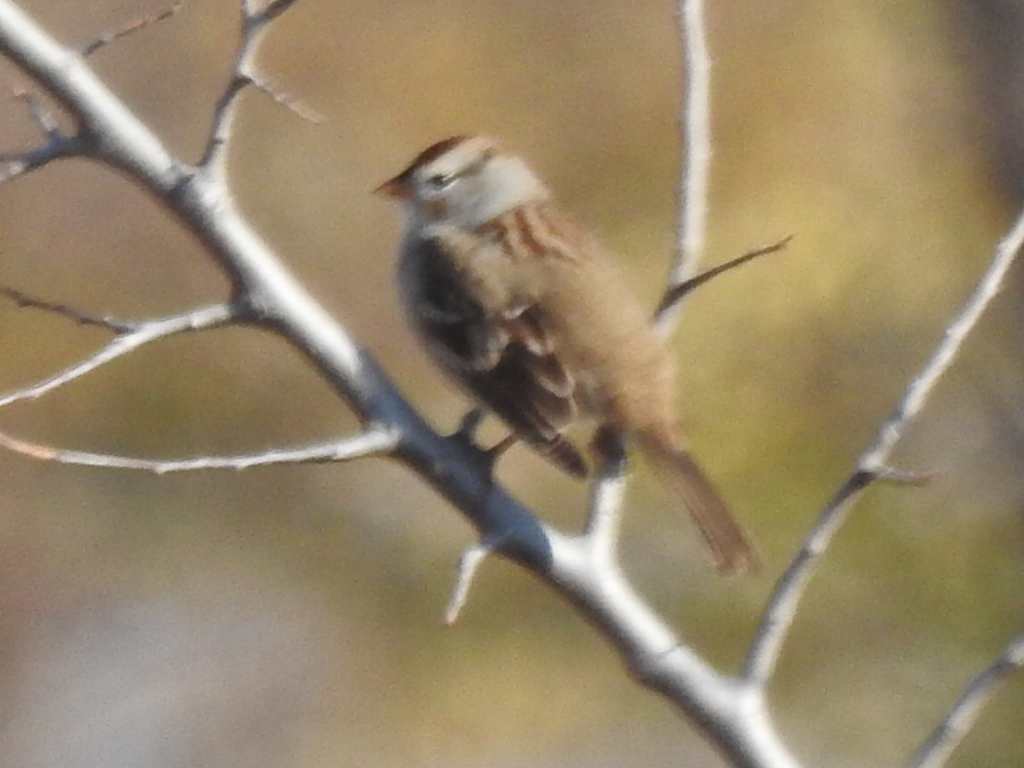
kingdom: Animalia
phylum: Chordata
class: Aves
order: Passeriformes
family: Passerellidae
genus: Zonotrichia
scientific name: Zonotrichia leucophrys
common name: White-crowned sparrow
